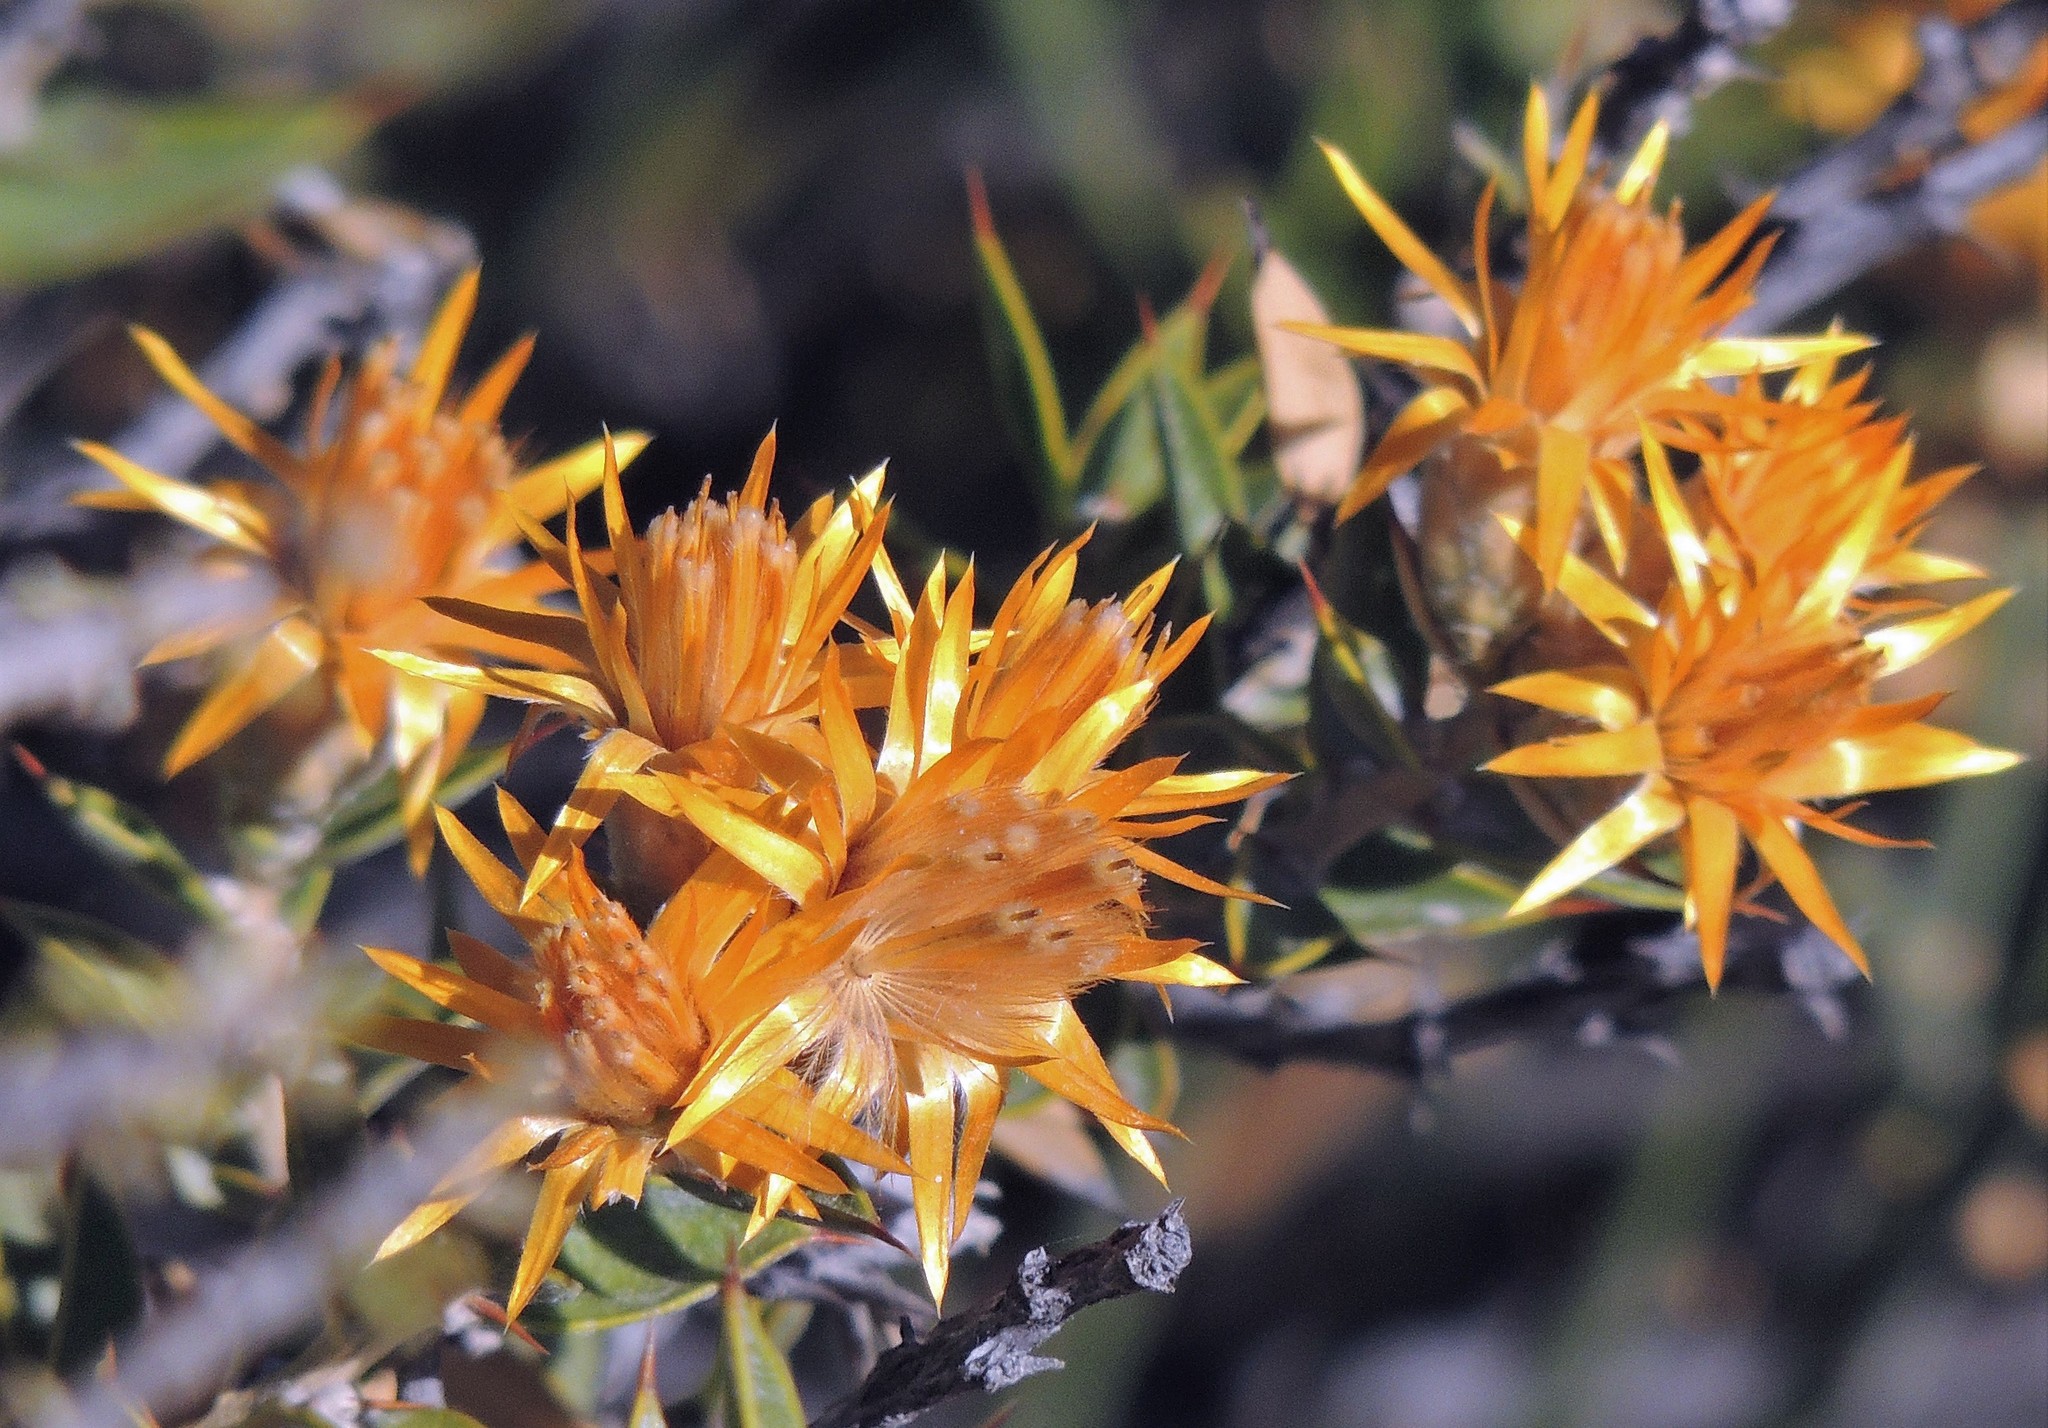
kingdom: Plantae
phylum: Tracheophyta
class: Magnoliopsida
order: Asterales
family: Asteraceae
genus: Chuquiraga
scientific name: Chuquiraga avellanedae
